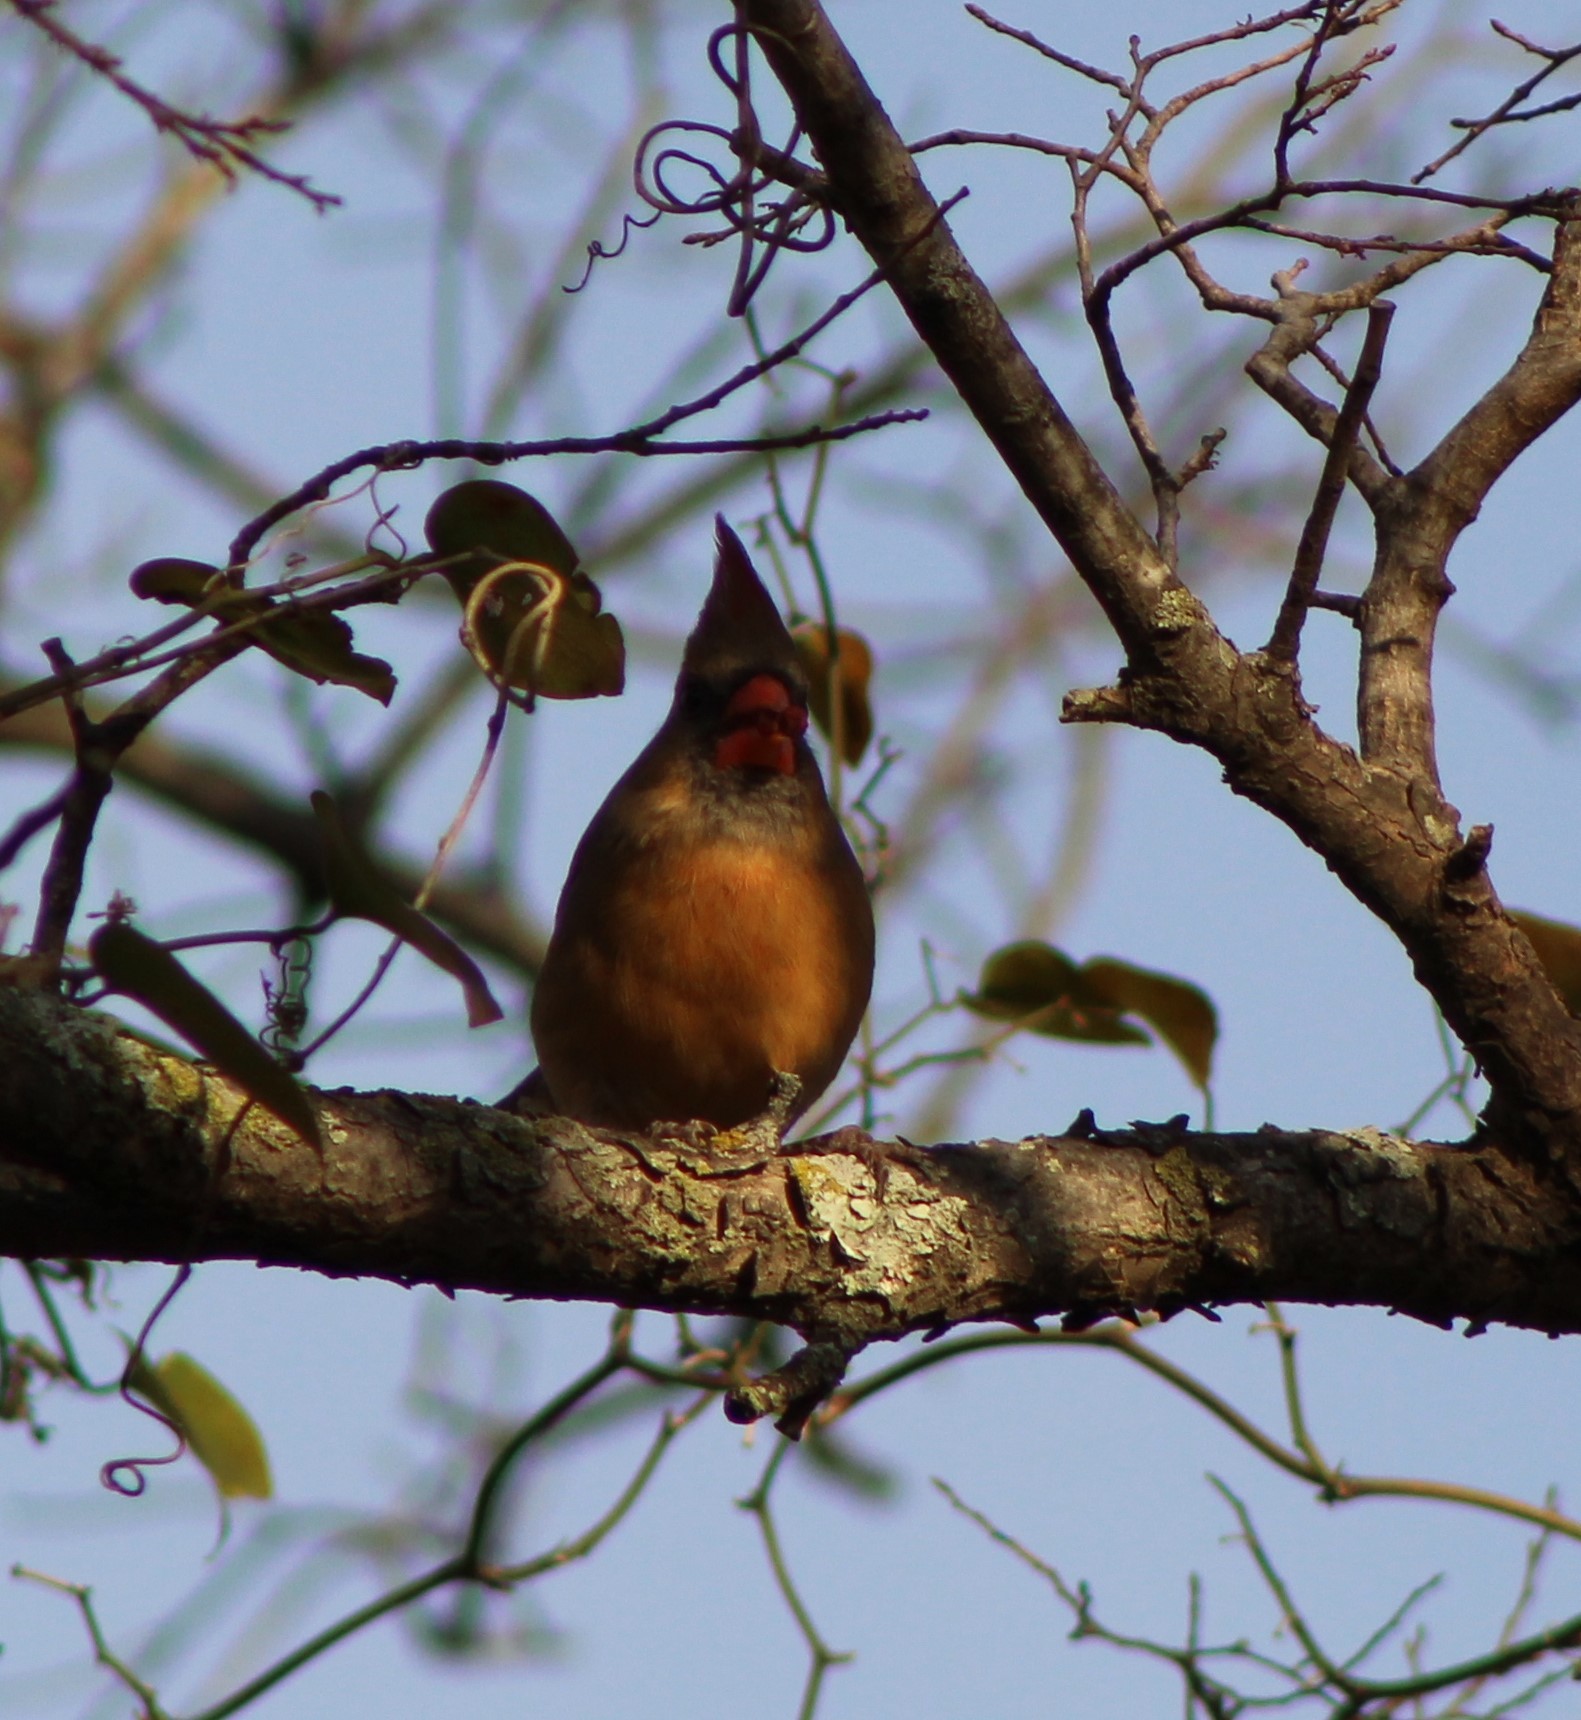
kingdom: Animalia
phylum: Chordata
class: Aves
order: Passeriformes
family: Cardinalidae
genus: Cardinalis
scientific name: Cardinalis cardinalis
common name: Northern cardinal
